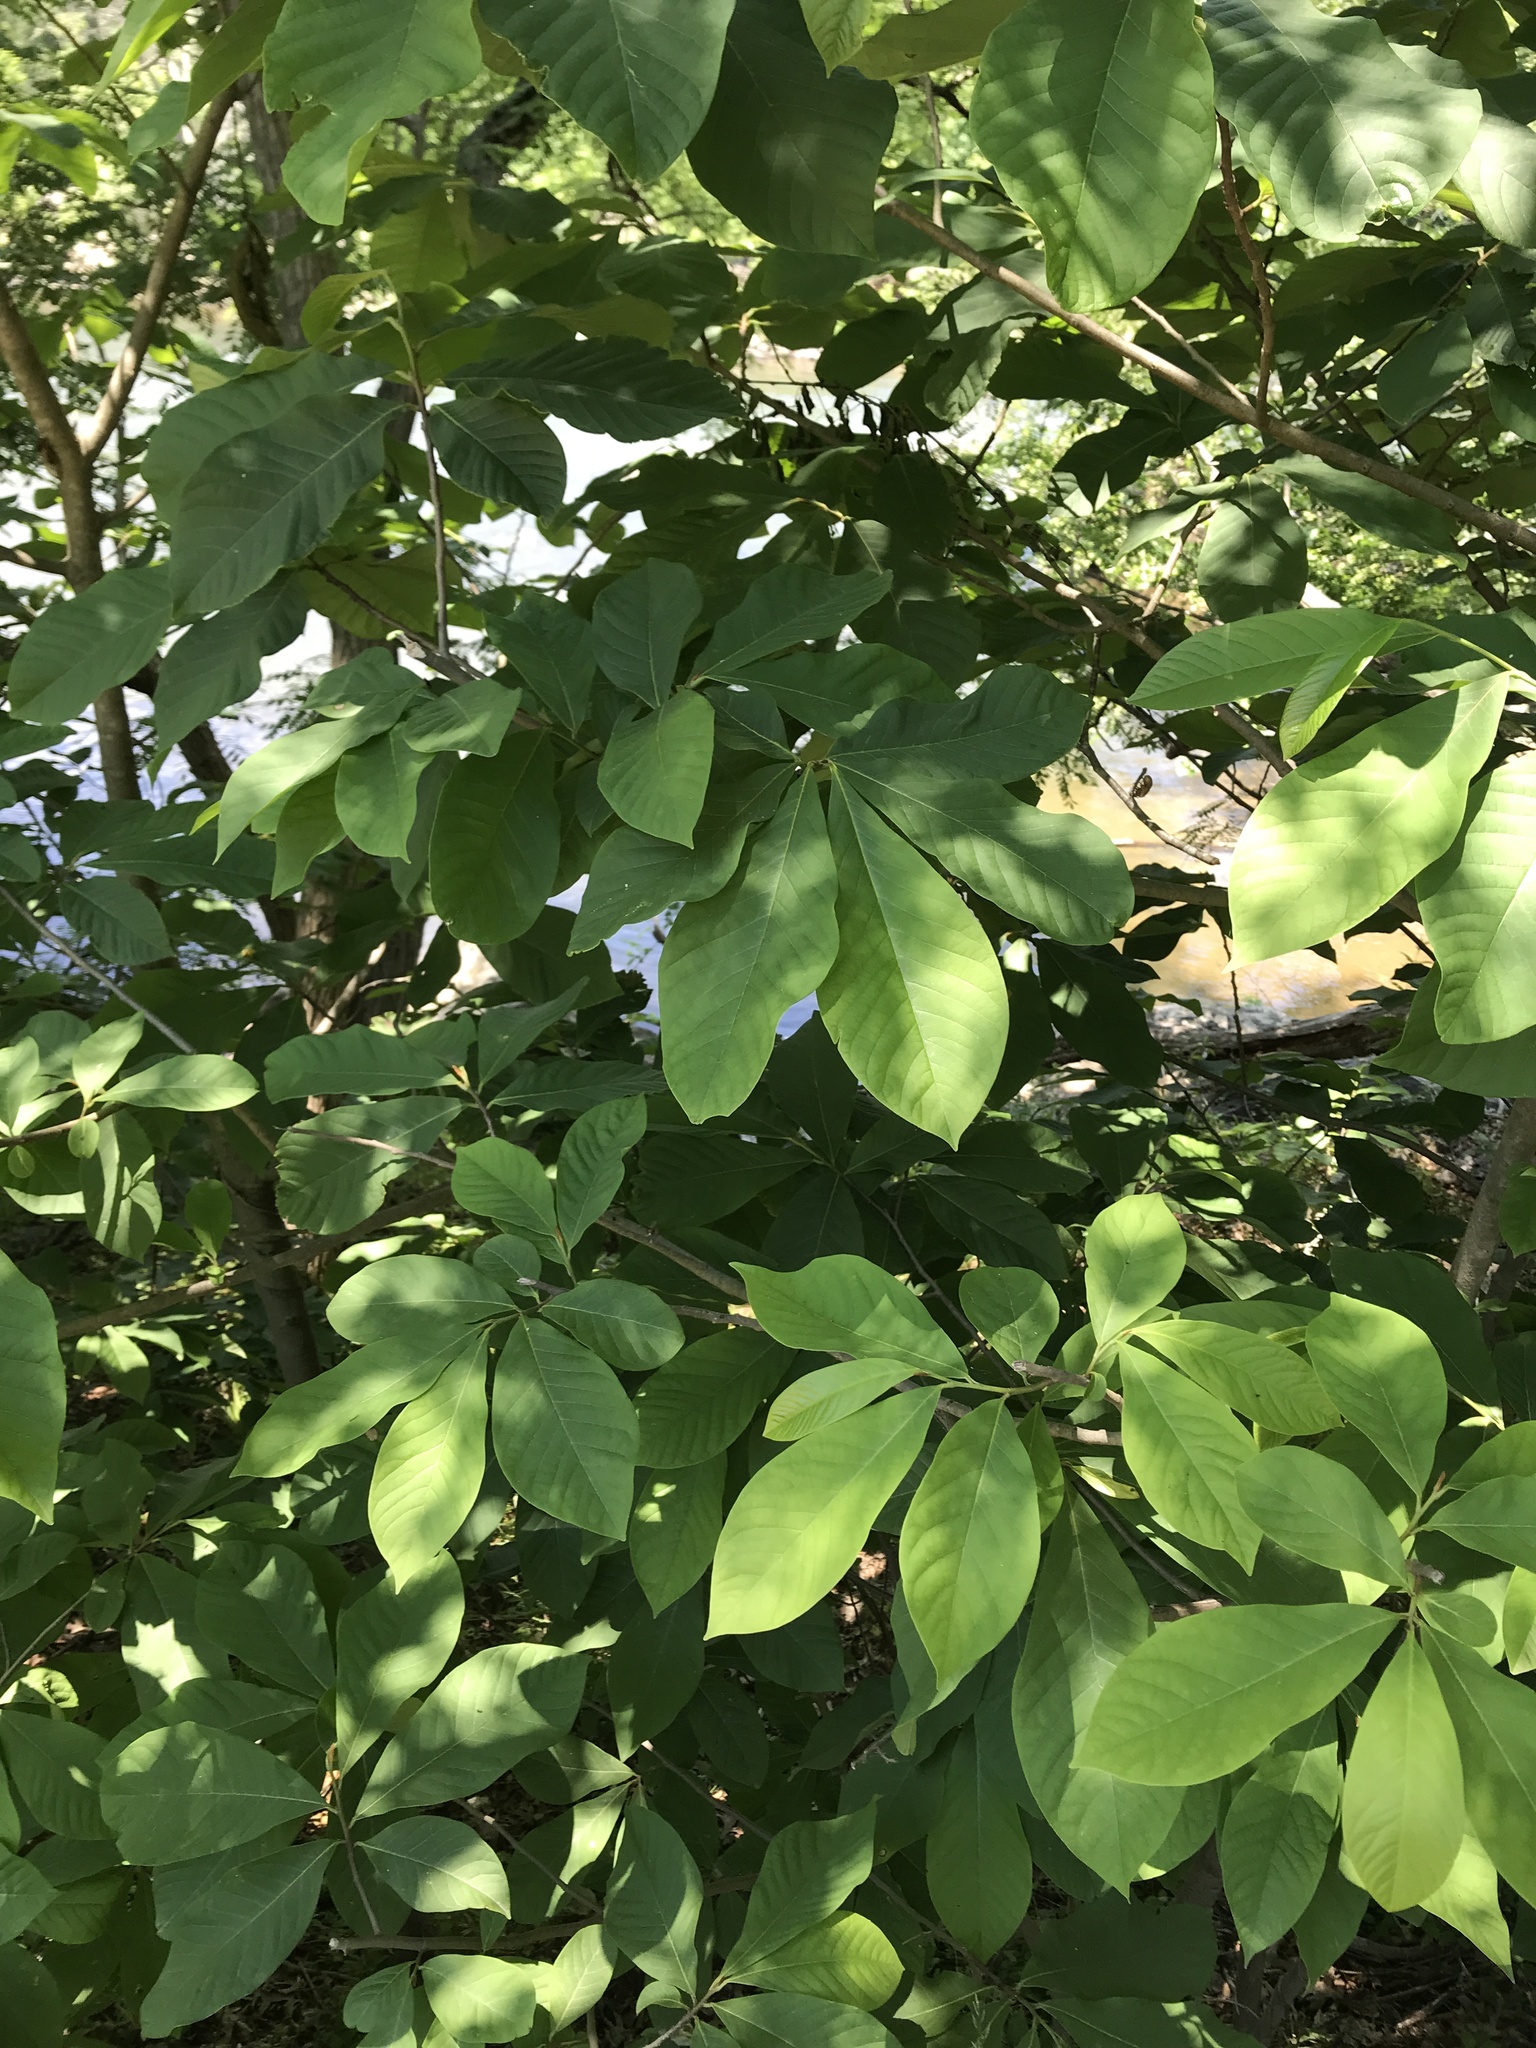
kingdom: Plantae
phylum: Tracheophyta
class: Magnoliopsida
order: Magnoliales
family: Annonaceae
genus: Asimina
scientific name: Asimina triloba
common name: Dog-banana
